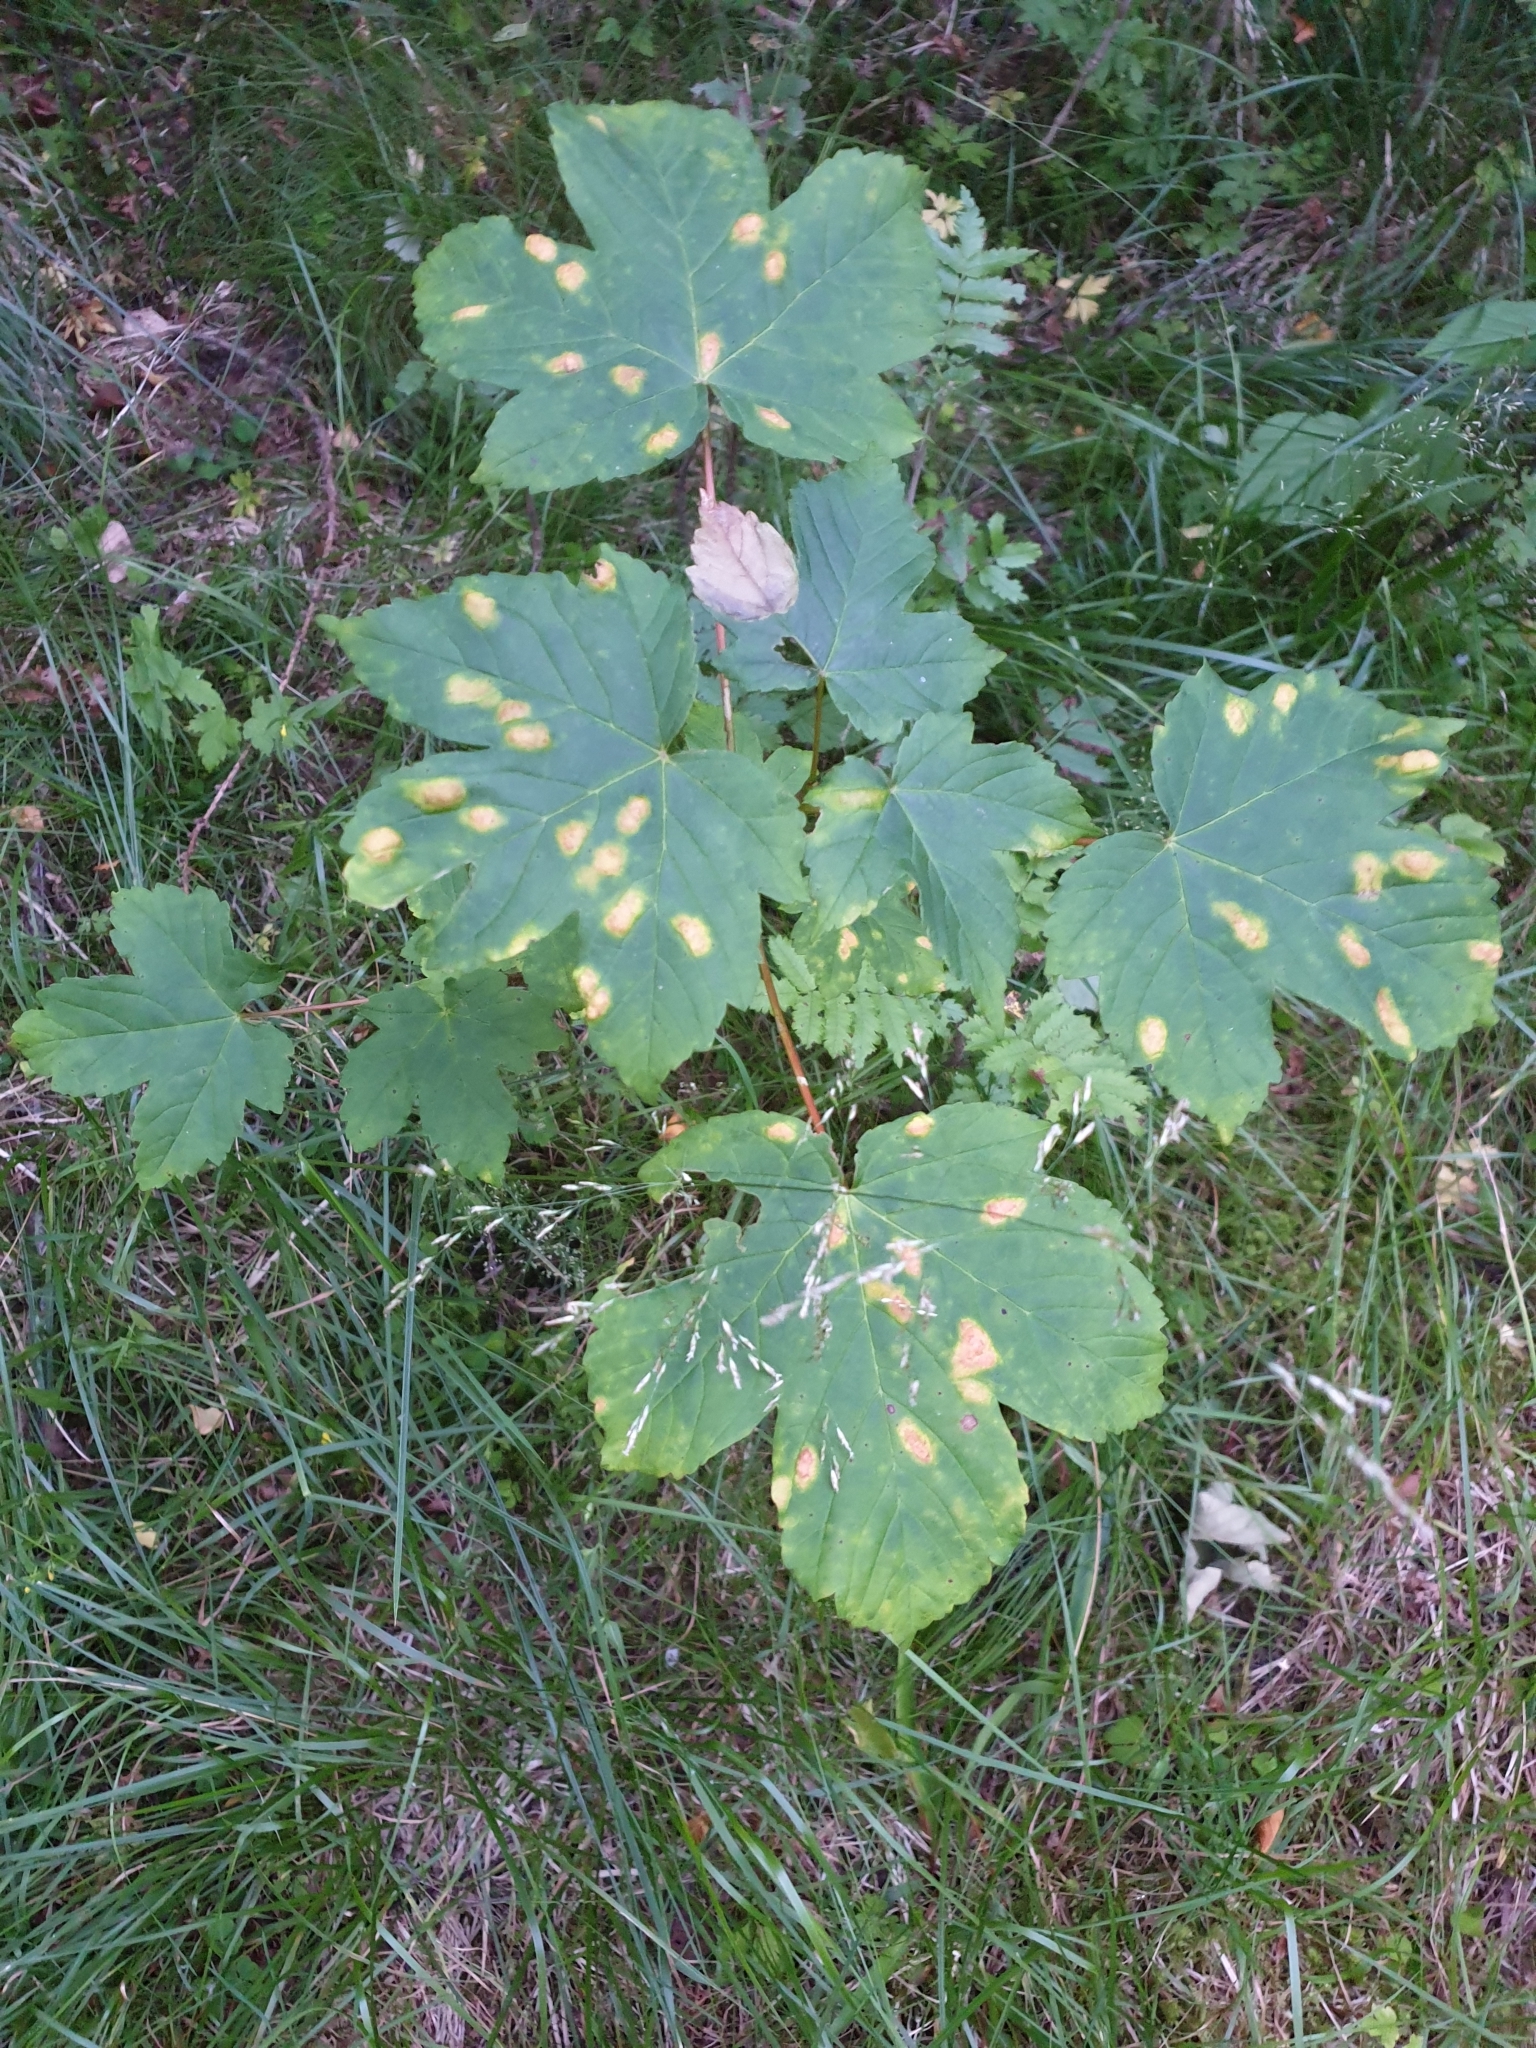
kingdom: Plantae
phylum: Tracheophyta
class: Magnoliopsida
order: Sapindales
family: Sapindaceae
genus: Acer
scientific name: Acer pseudoplatanus
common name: Sycamore
